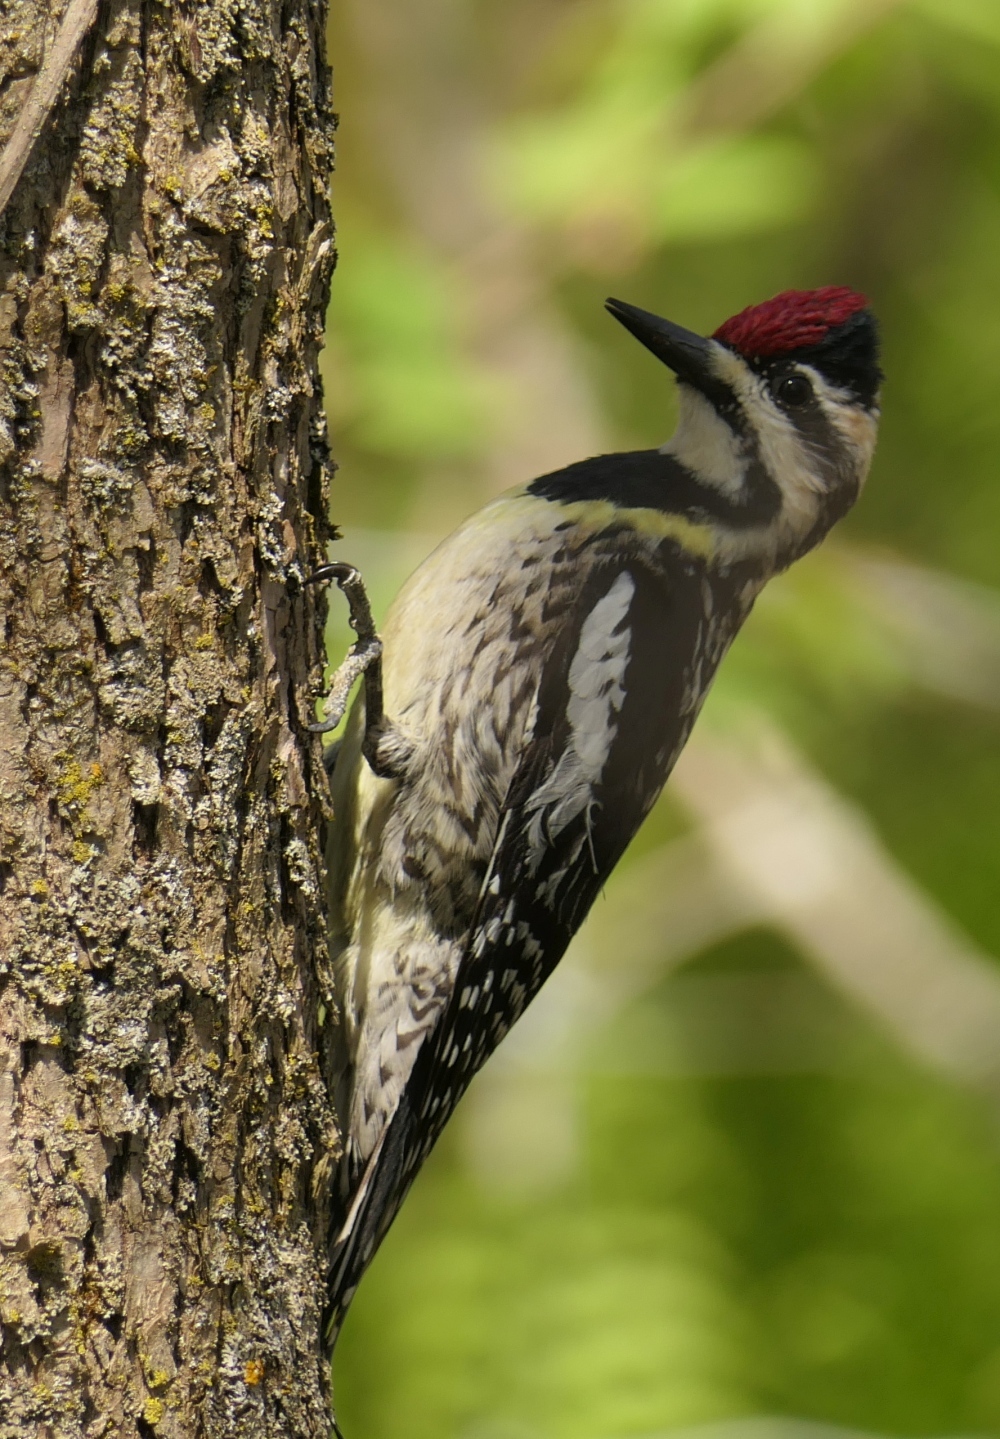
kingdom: Animalia
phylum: Chordata
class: Aves
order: Piciformes
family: Picidae
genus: Sphyrapicus
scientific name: Sphyrapicus varius
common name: Yellow-bellied sapsucker
